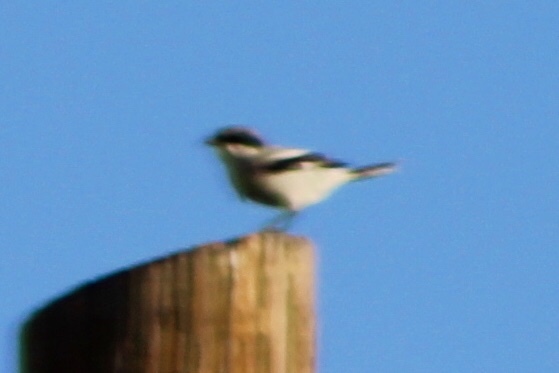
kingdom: Animalia
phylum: Chordata
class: Aves
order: Passeriformes
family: Laniidae
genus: Lanius
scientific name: Lanius ludovicianus
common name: Loggerhead shrike
